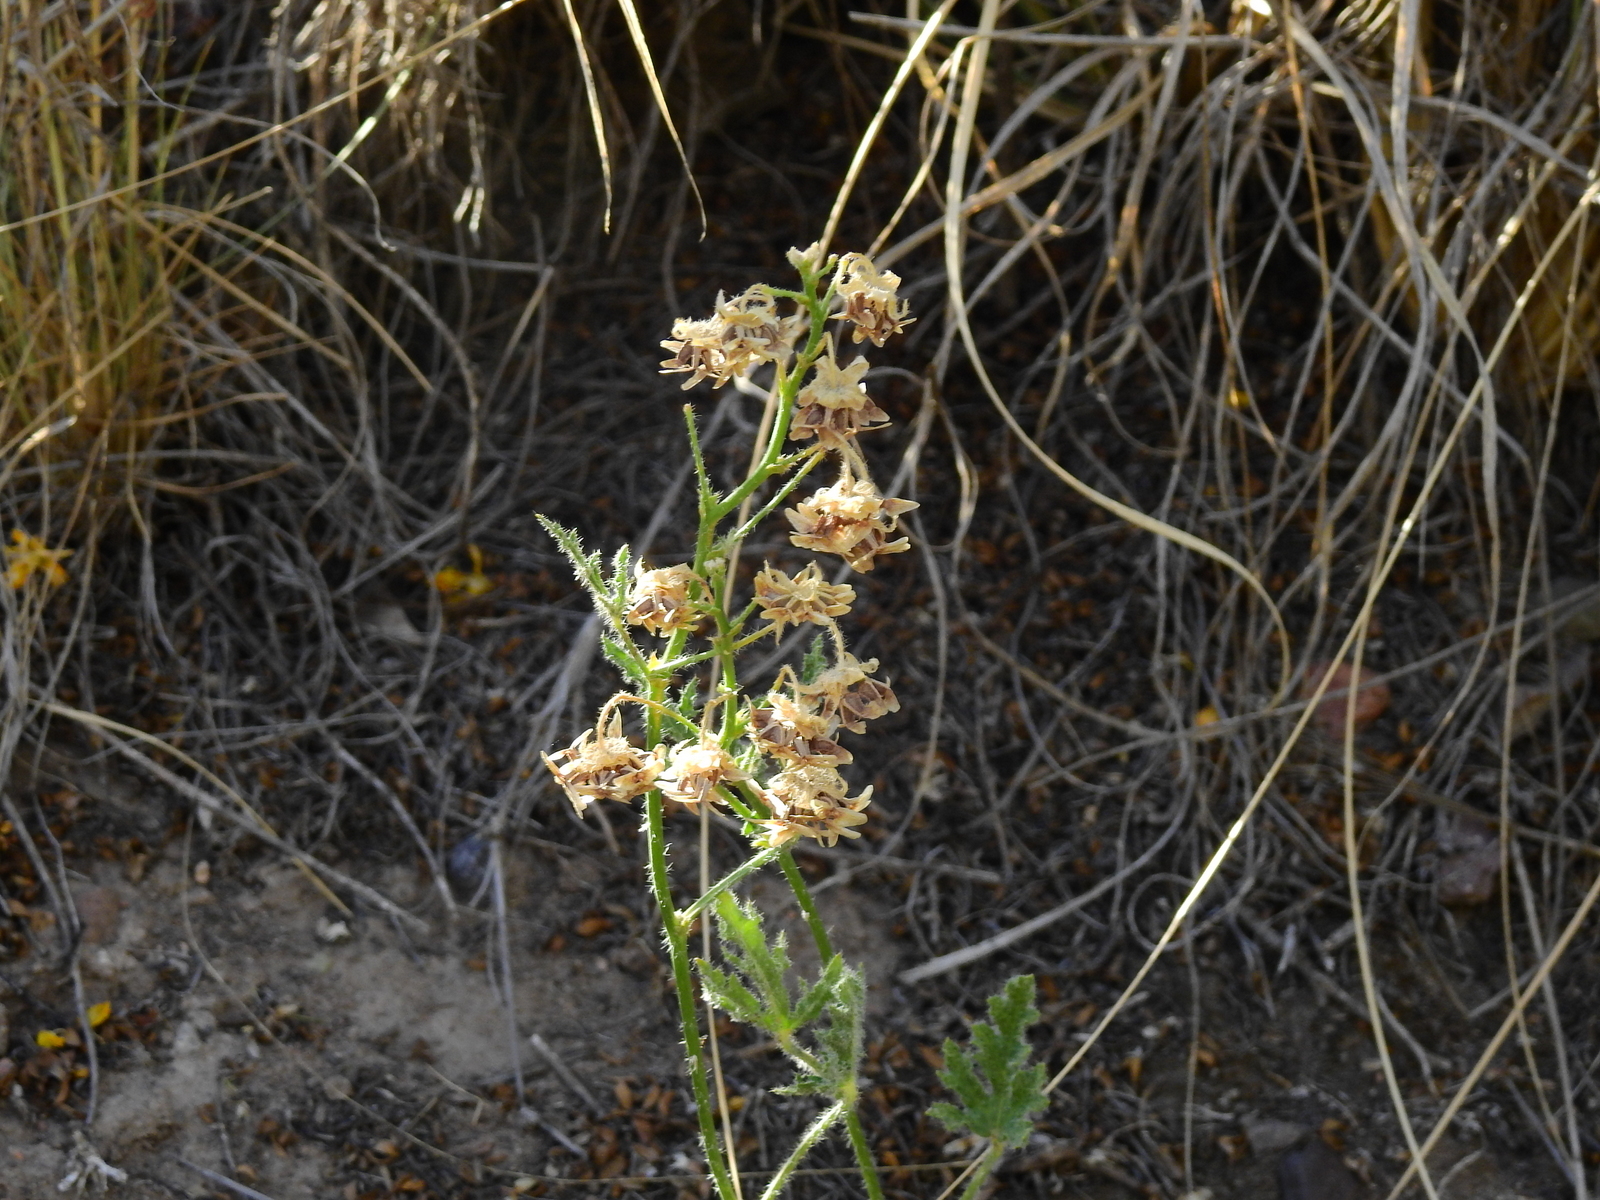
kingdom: Plantae
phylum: Tracheophyta
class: Magnoliopsida
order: Malvales
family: Malvaceae
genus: Lecanophora
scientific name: Lecanophora heterophylla
